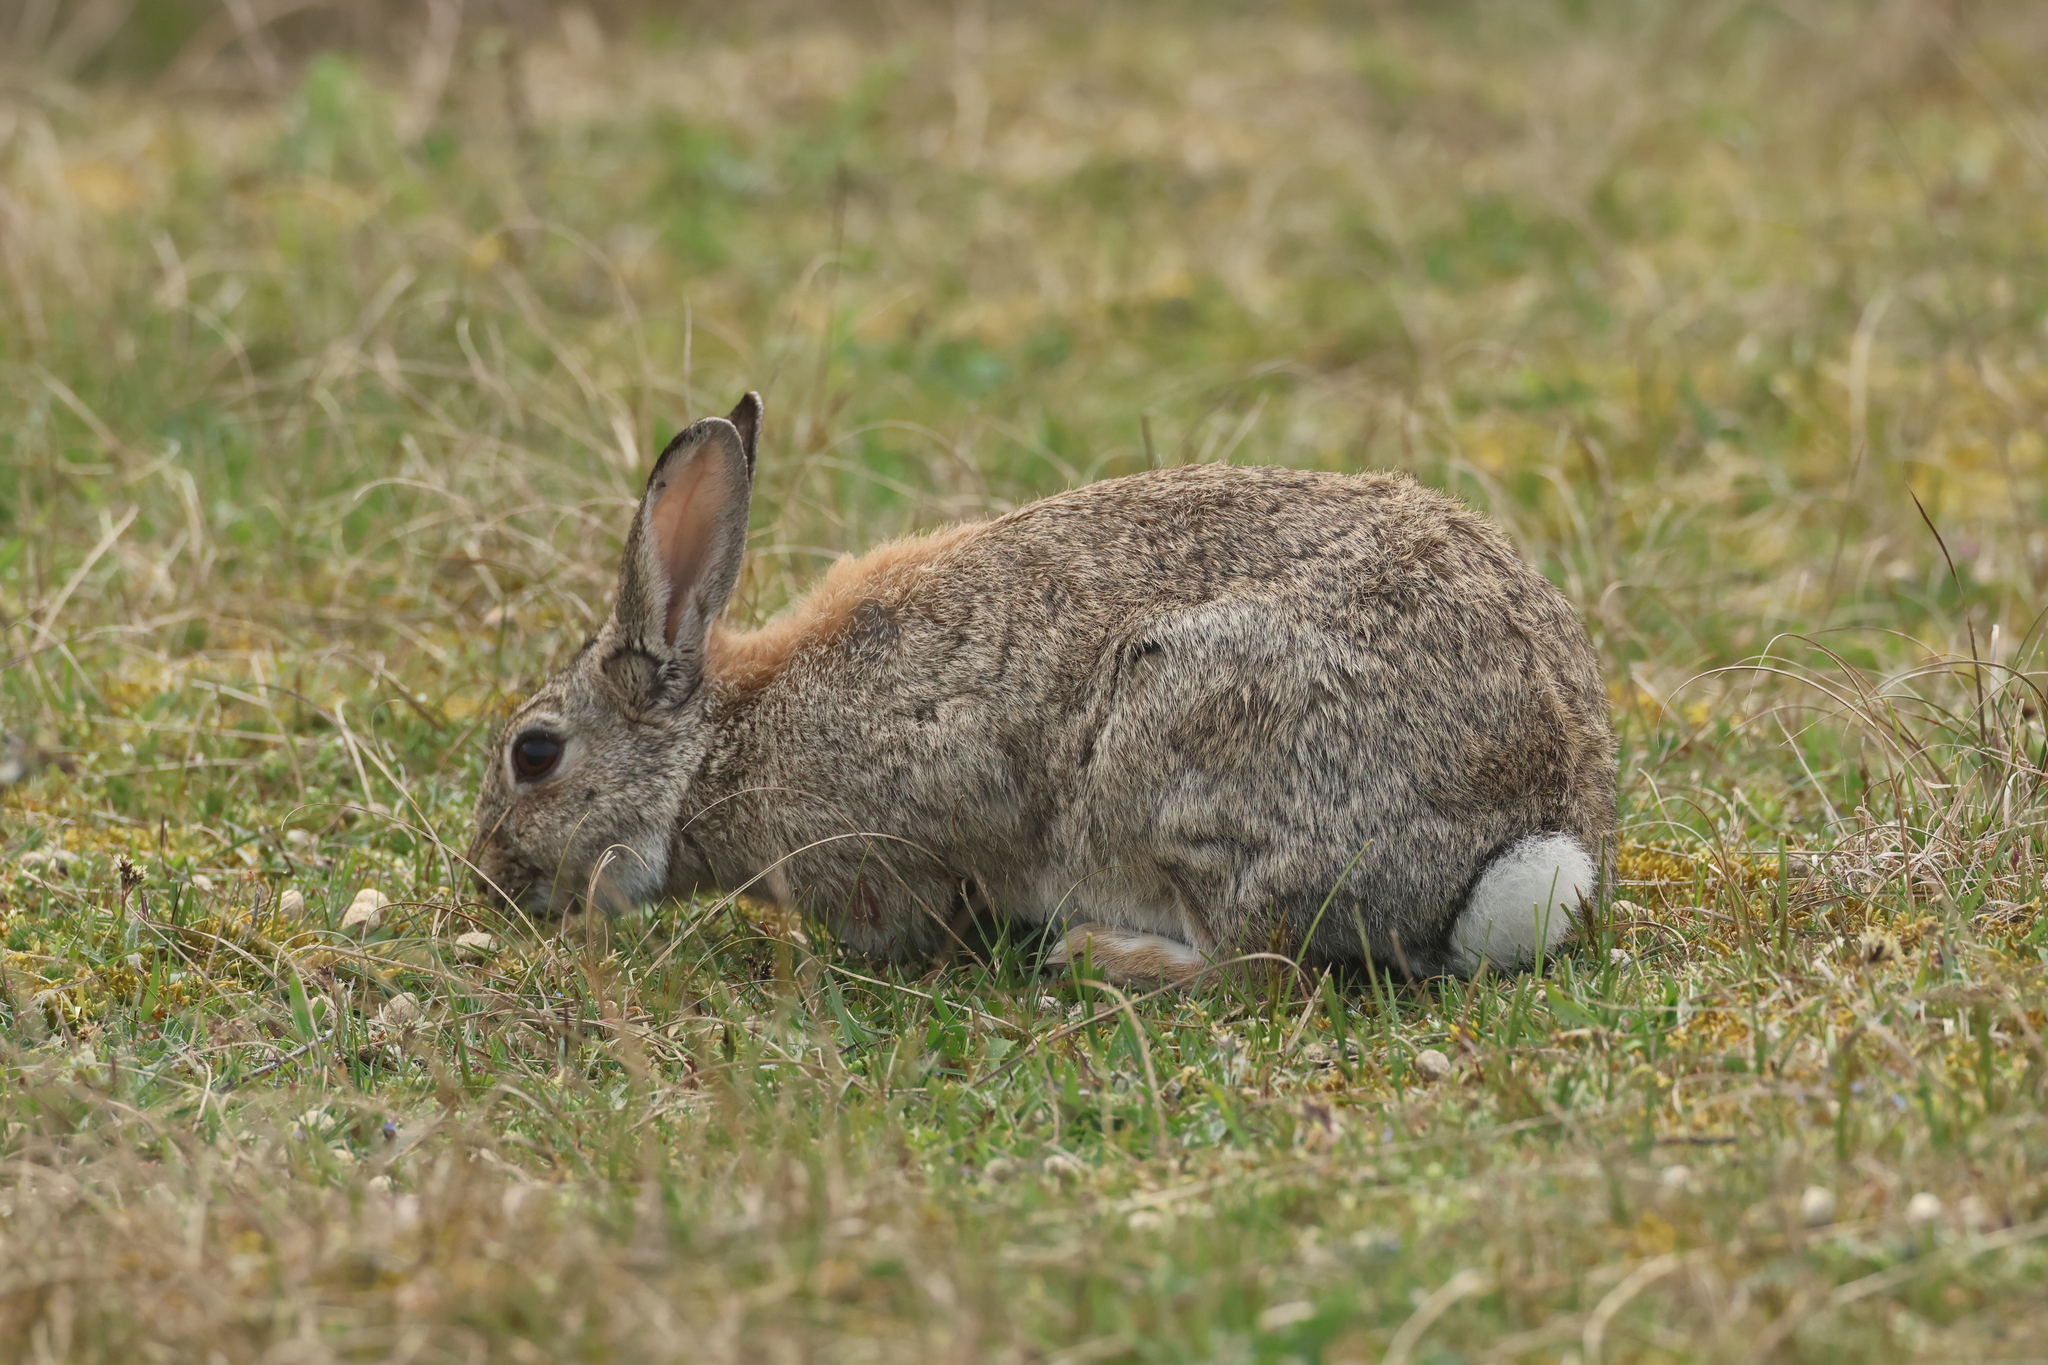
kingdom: Animalia
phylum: Chordata
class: Mammalia
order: Lagomorpha
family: Leporidae
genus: Oryctolagus
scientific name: Oryctolagus cuniculus
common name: European rabbit
